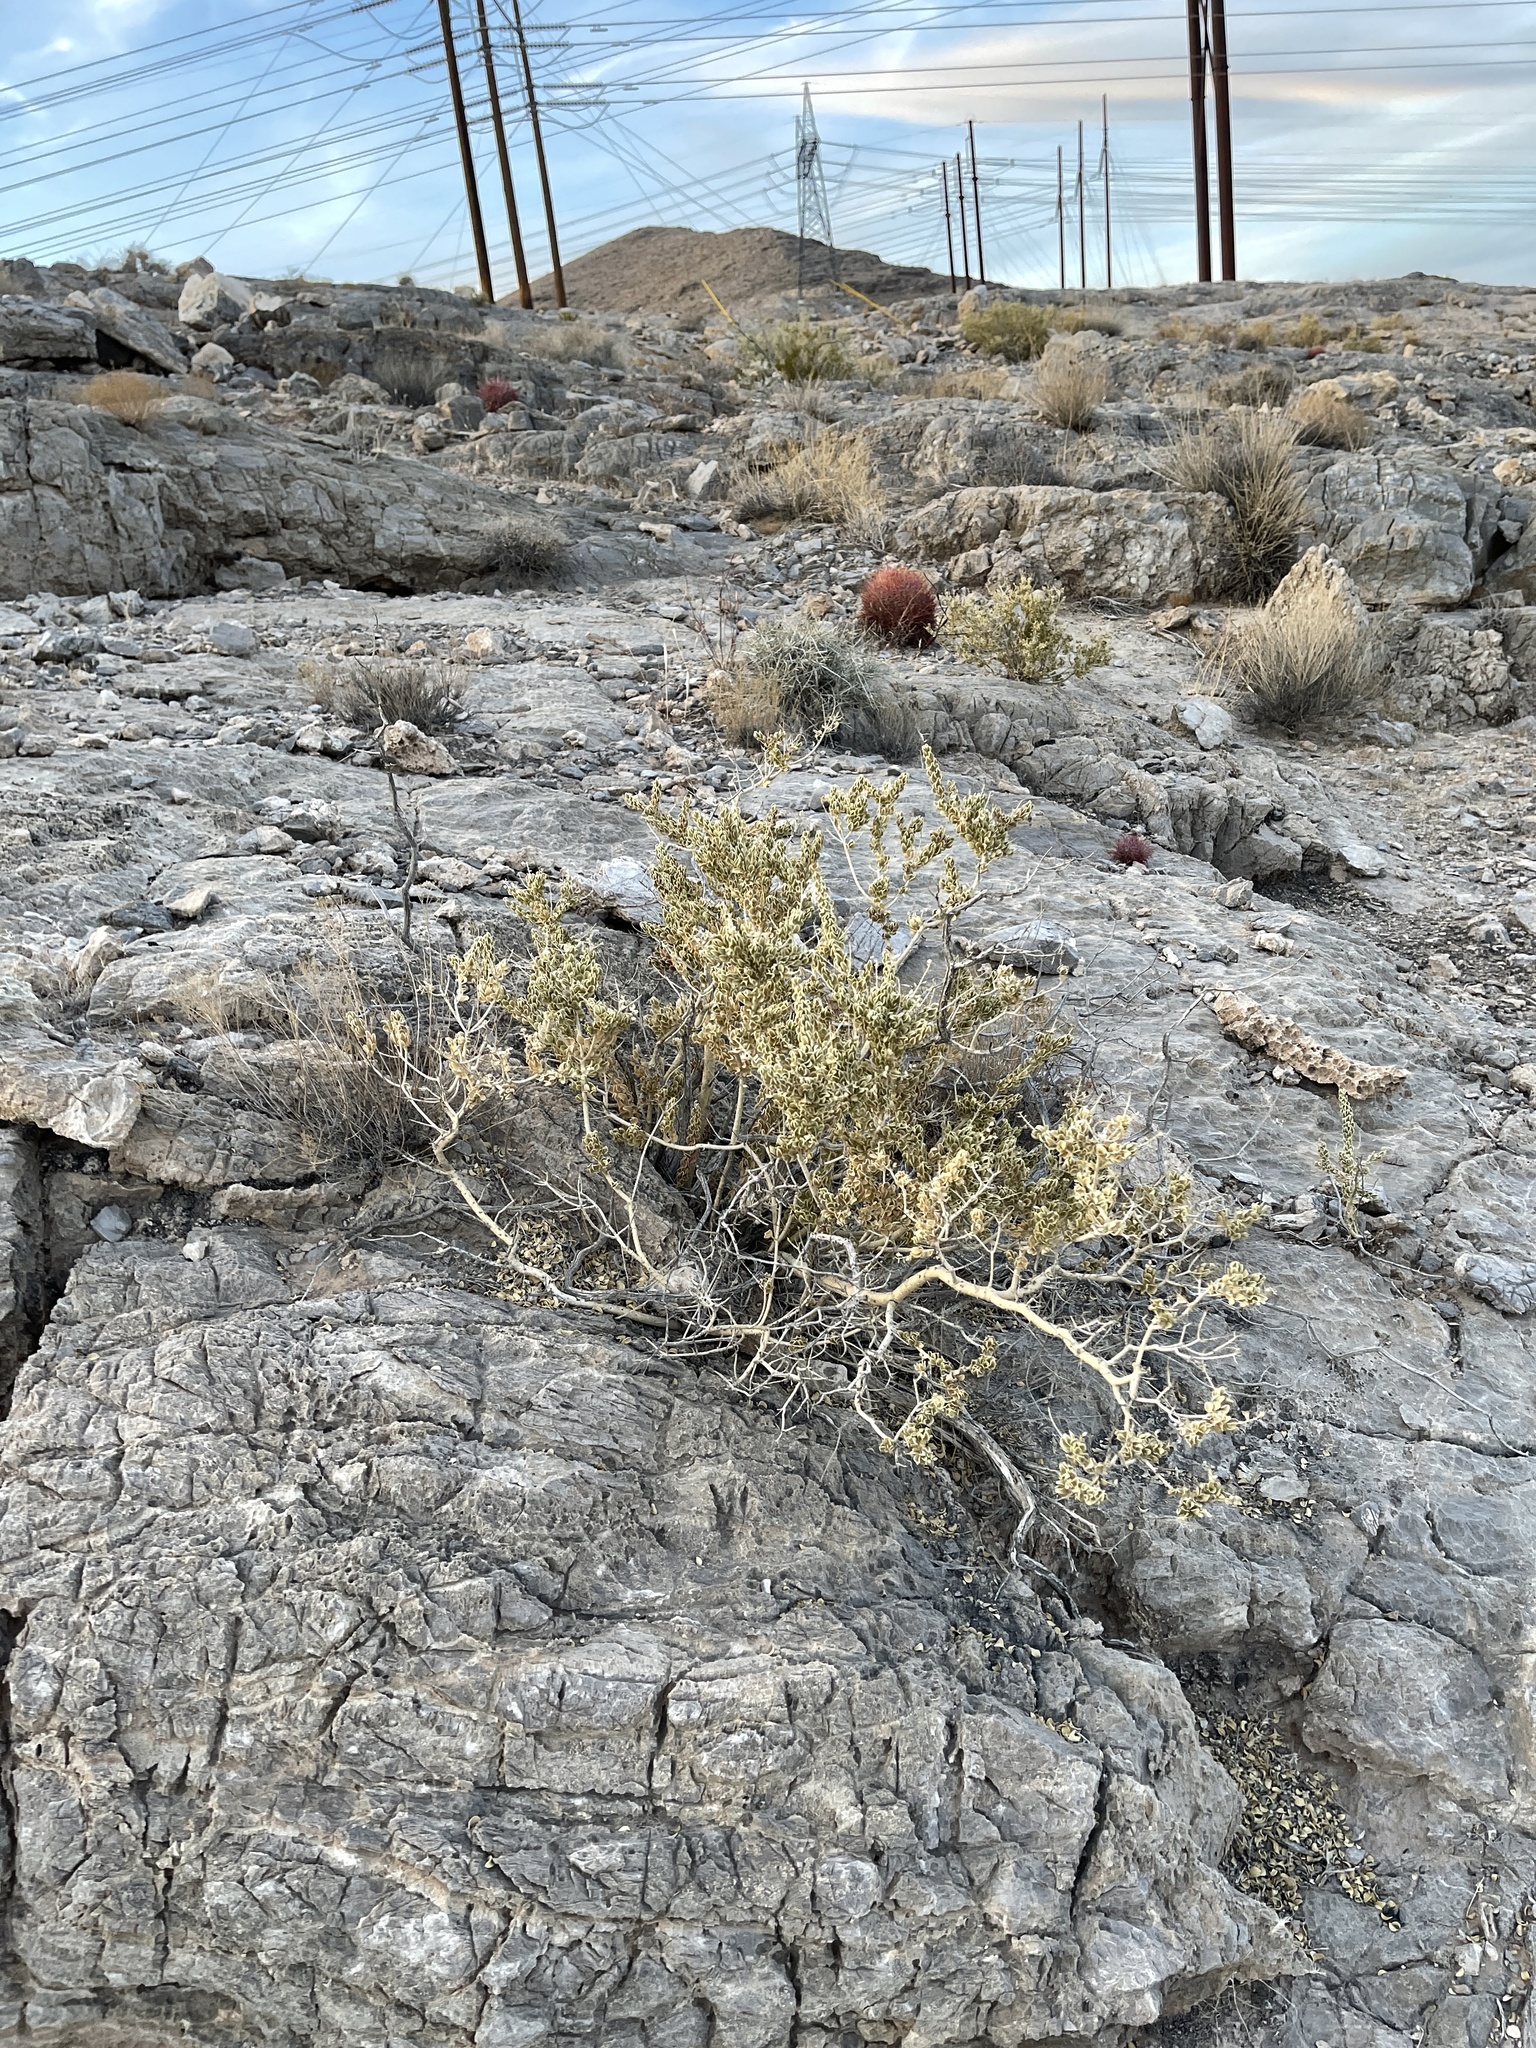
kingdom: Plantae
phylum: Tracheophyta
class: Magnoliopsida
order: Celastrales
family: Celastraceae
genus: Mortonia
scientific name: Mortonia utahensis
